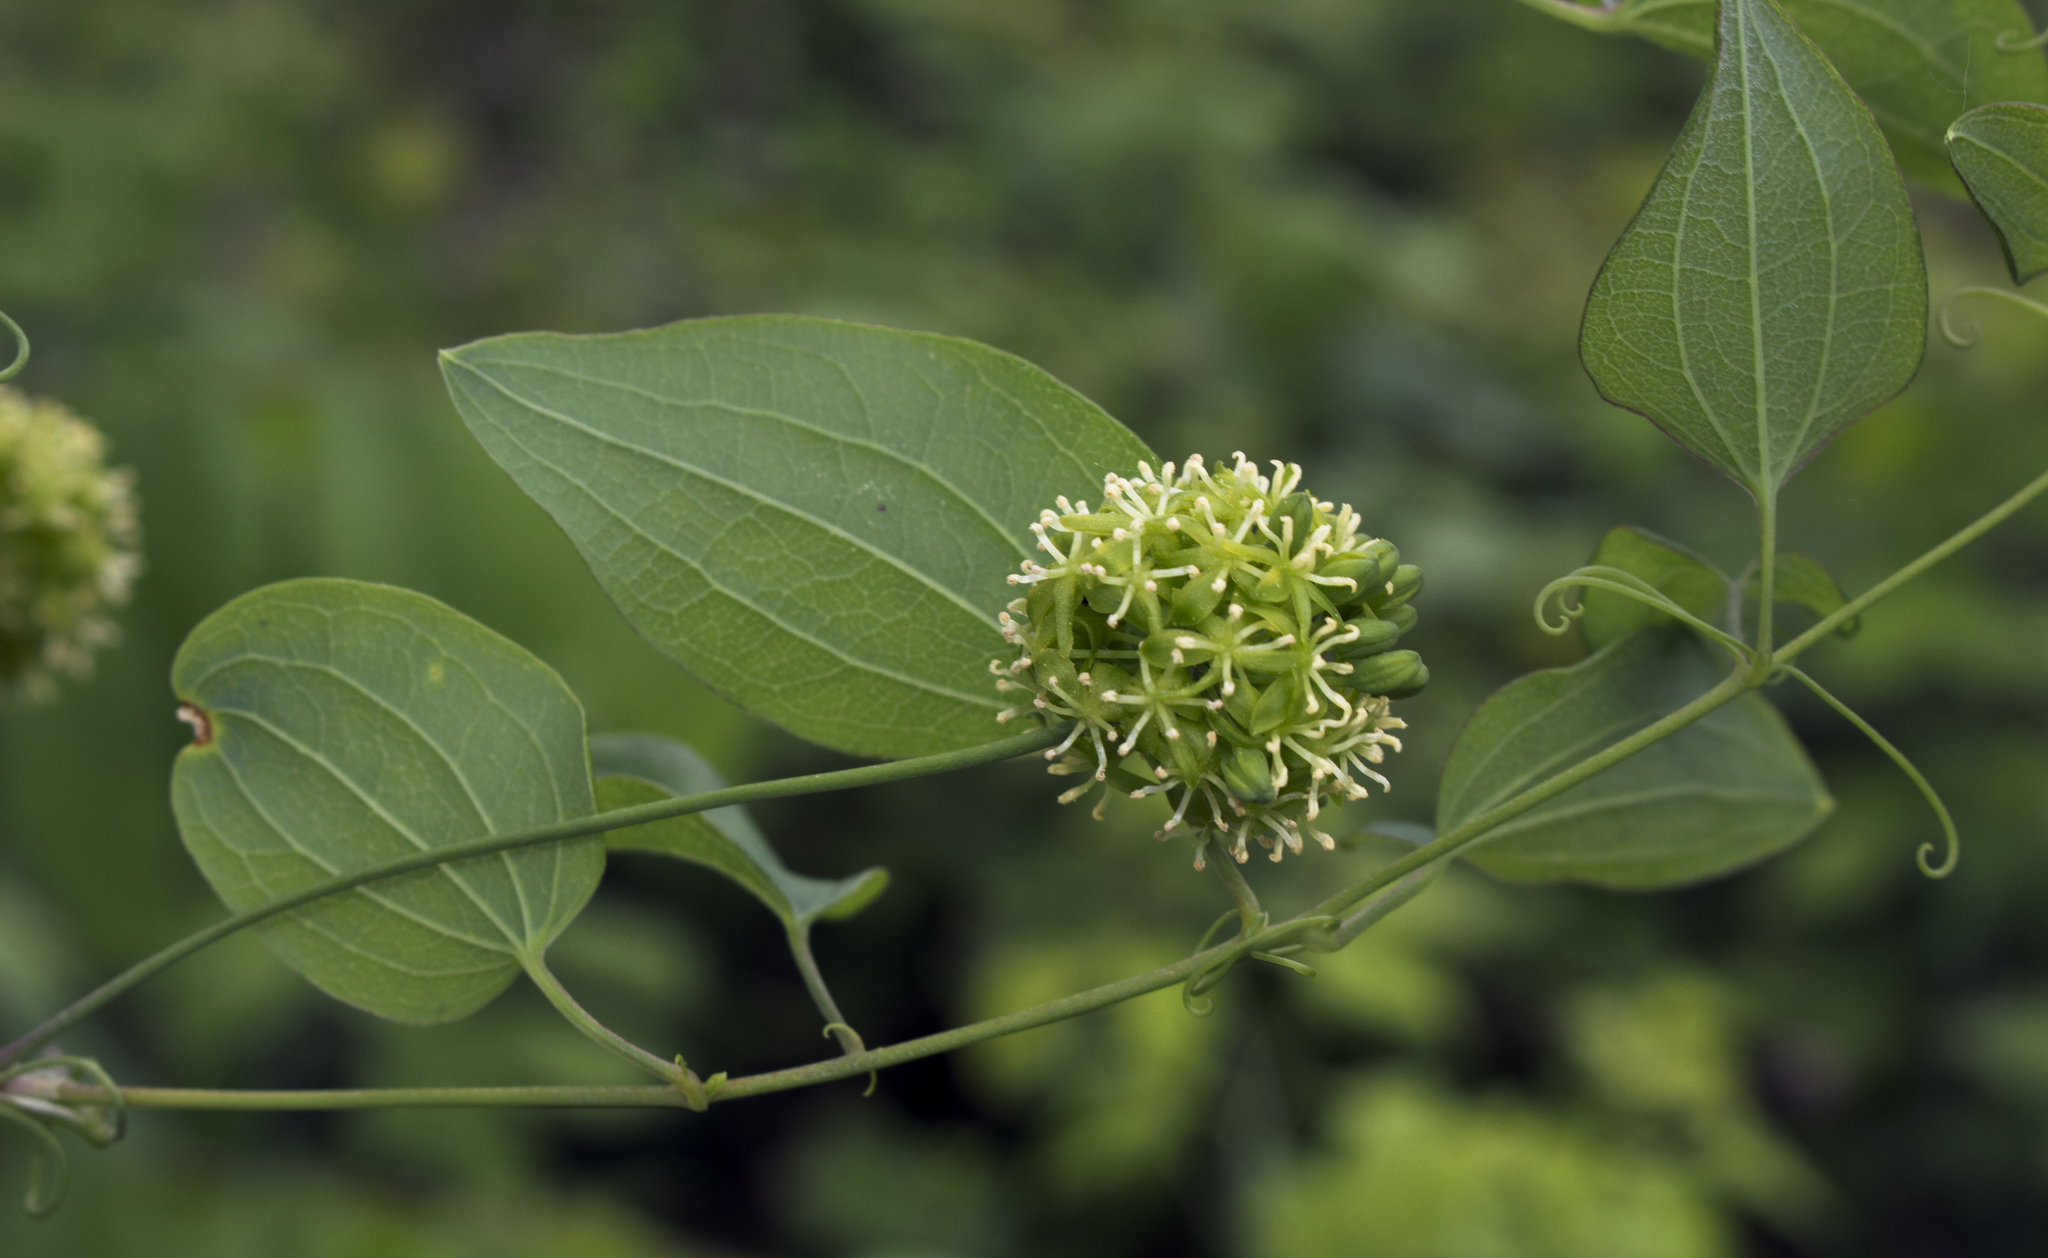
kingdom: Plantae
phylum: Tracheophyta
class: Liliopsida
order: Liliales
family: Smilacaceae
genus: Smilax
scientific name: Smilax lasioneura
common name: Blue ridge carrionflower
